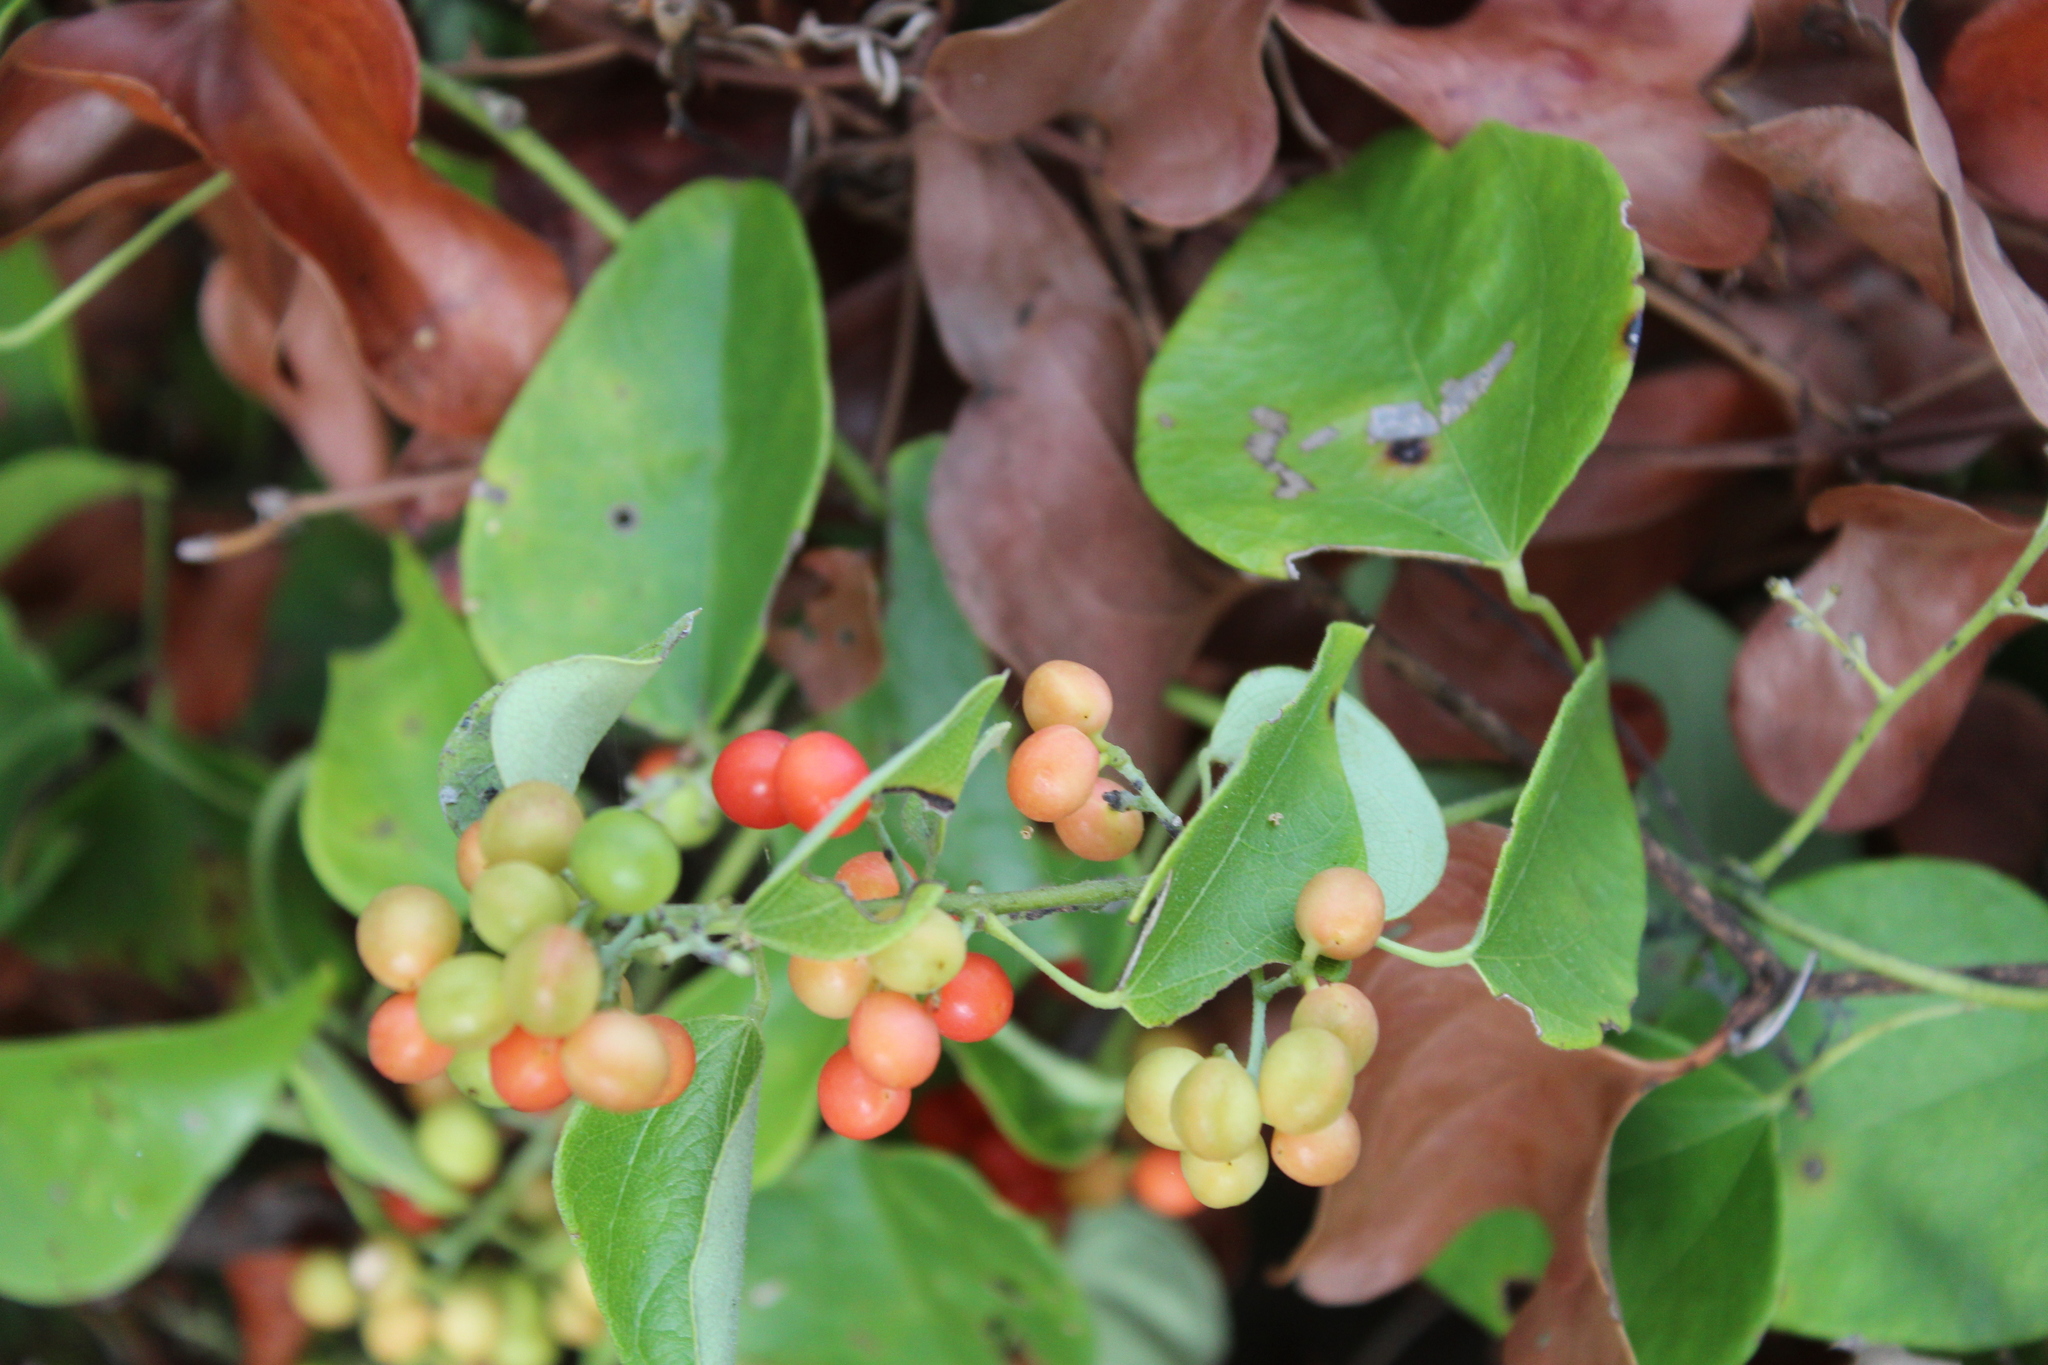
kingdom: Plantae
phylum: Tracheophyta
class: Magnoliopsida
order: Ranunculales
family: Menispermaceae
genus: Cocculus
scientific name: Cocculus carolinus
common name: Carolina moonseed
